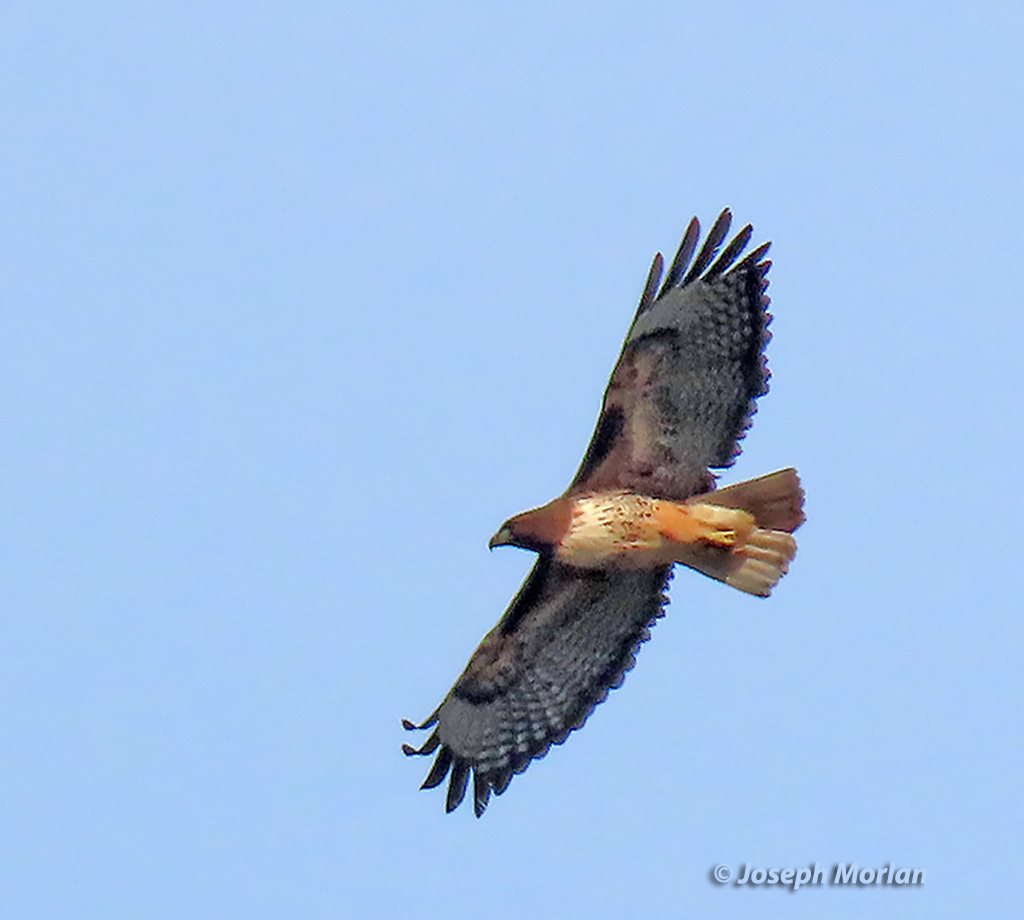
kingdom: Animalia
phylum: Chordata
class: Aves
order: Accipitriformes
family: Accipitridae
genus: Buteo
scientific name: Buteo jamaicensis
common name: Red-tailed hawk
